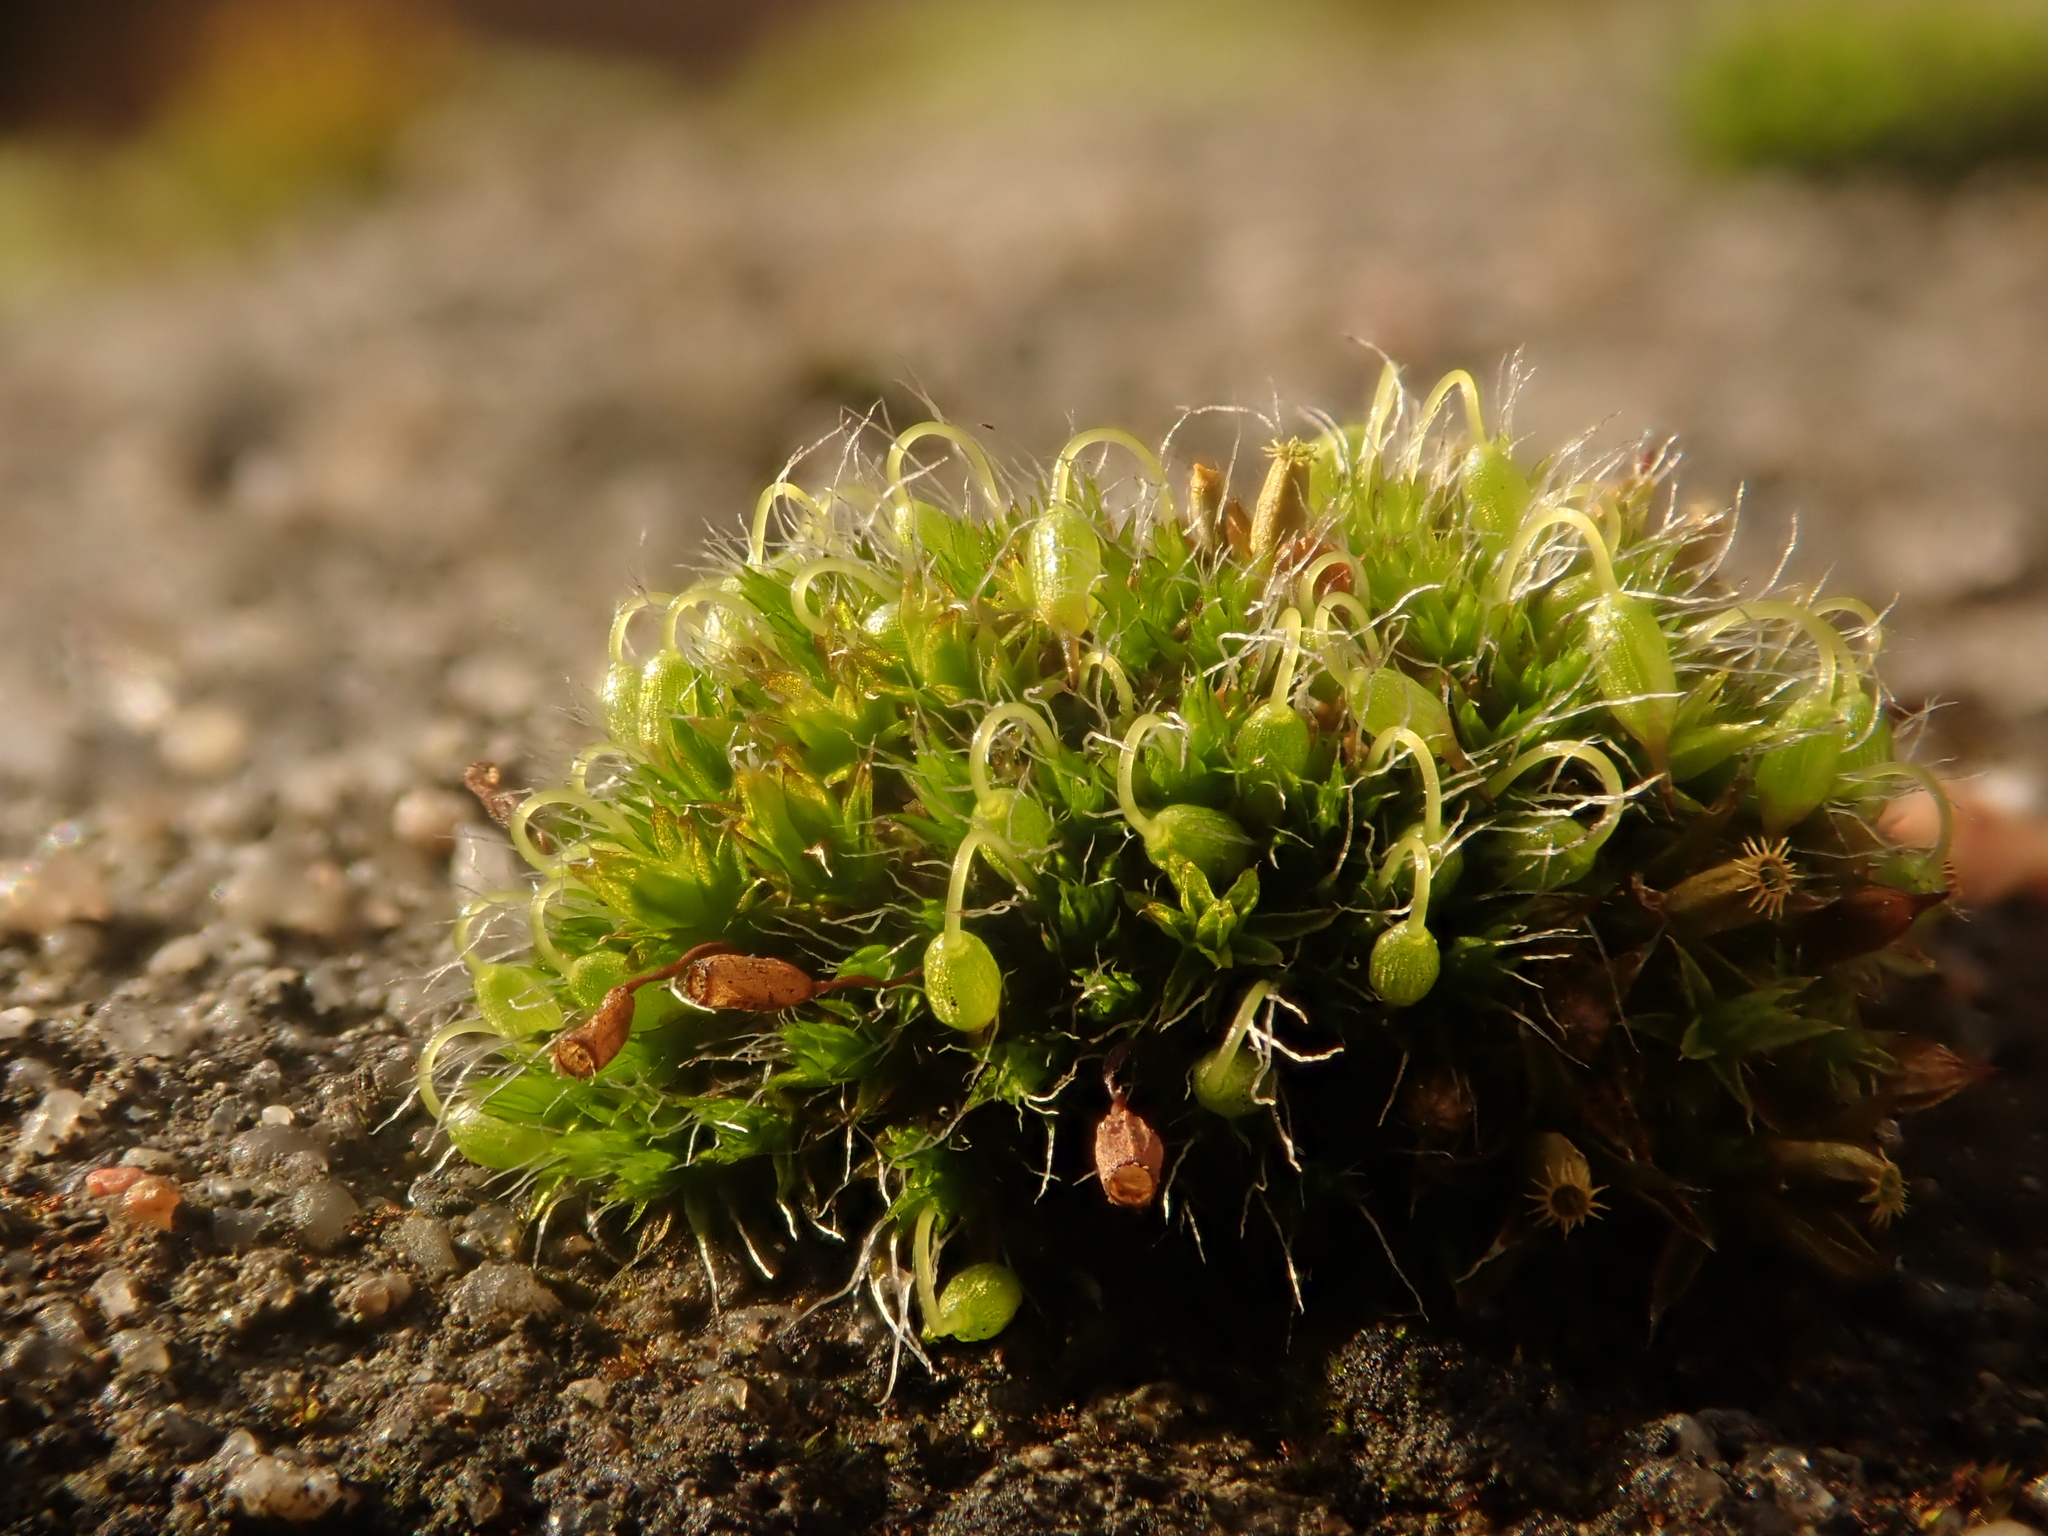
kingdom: Plantae
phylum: Bryophyta
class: Bryopsida
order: Grimmiales
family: Grimmiaceae
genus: Grimmia
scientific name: Grimmia pulvinata
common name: Grey-cushioned grimmia
